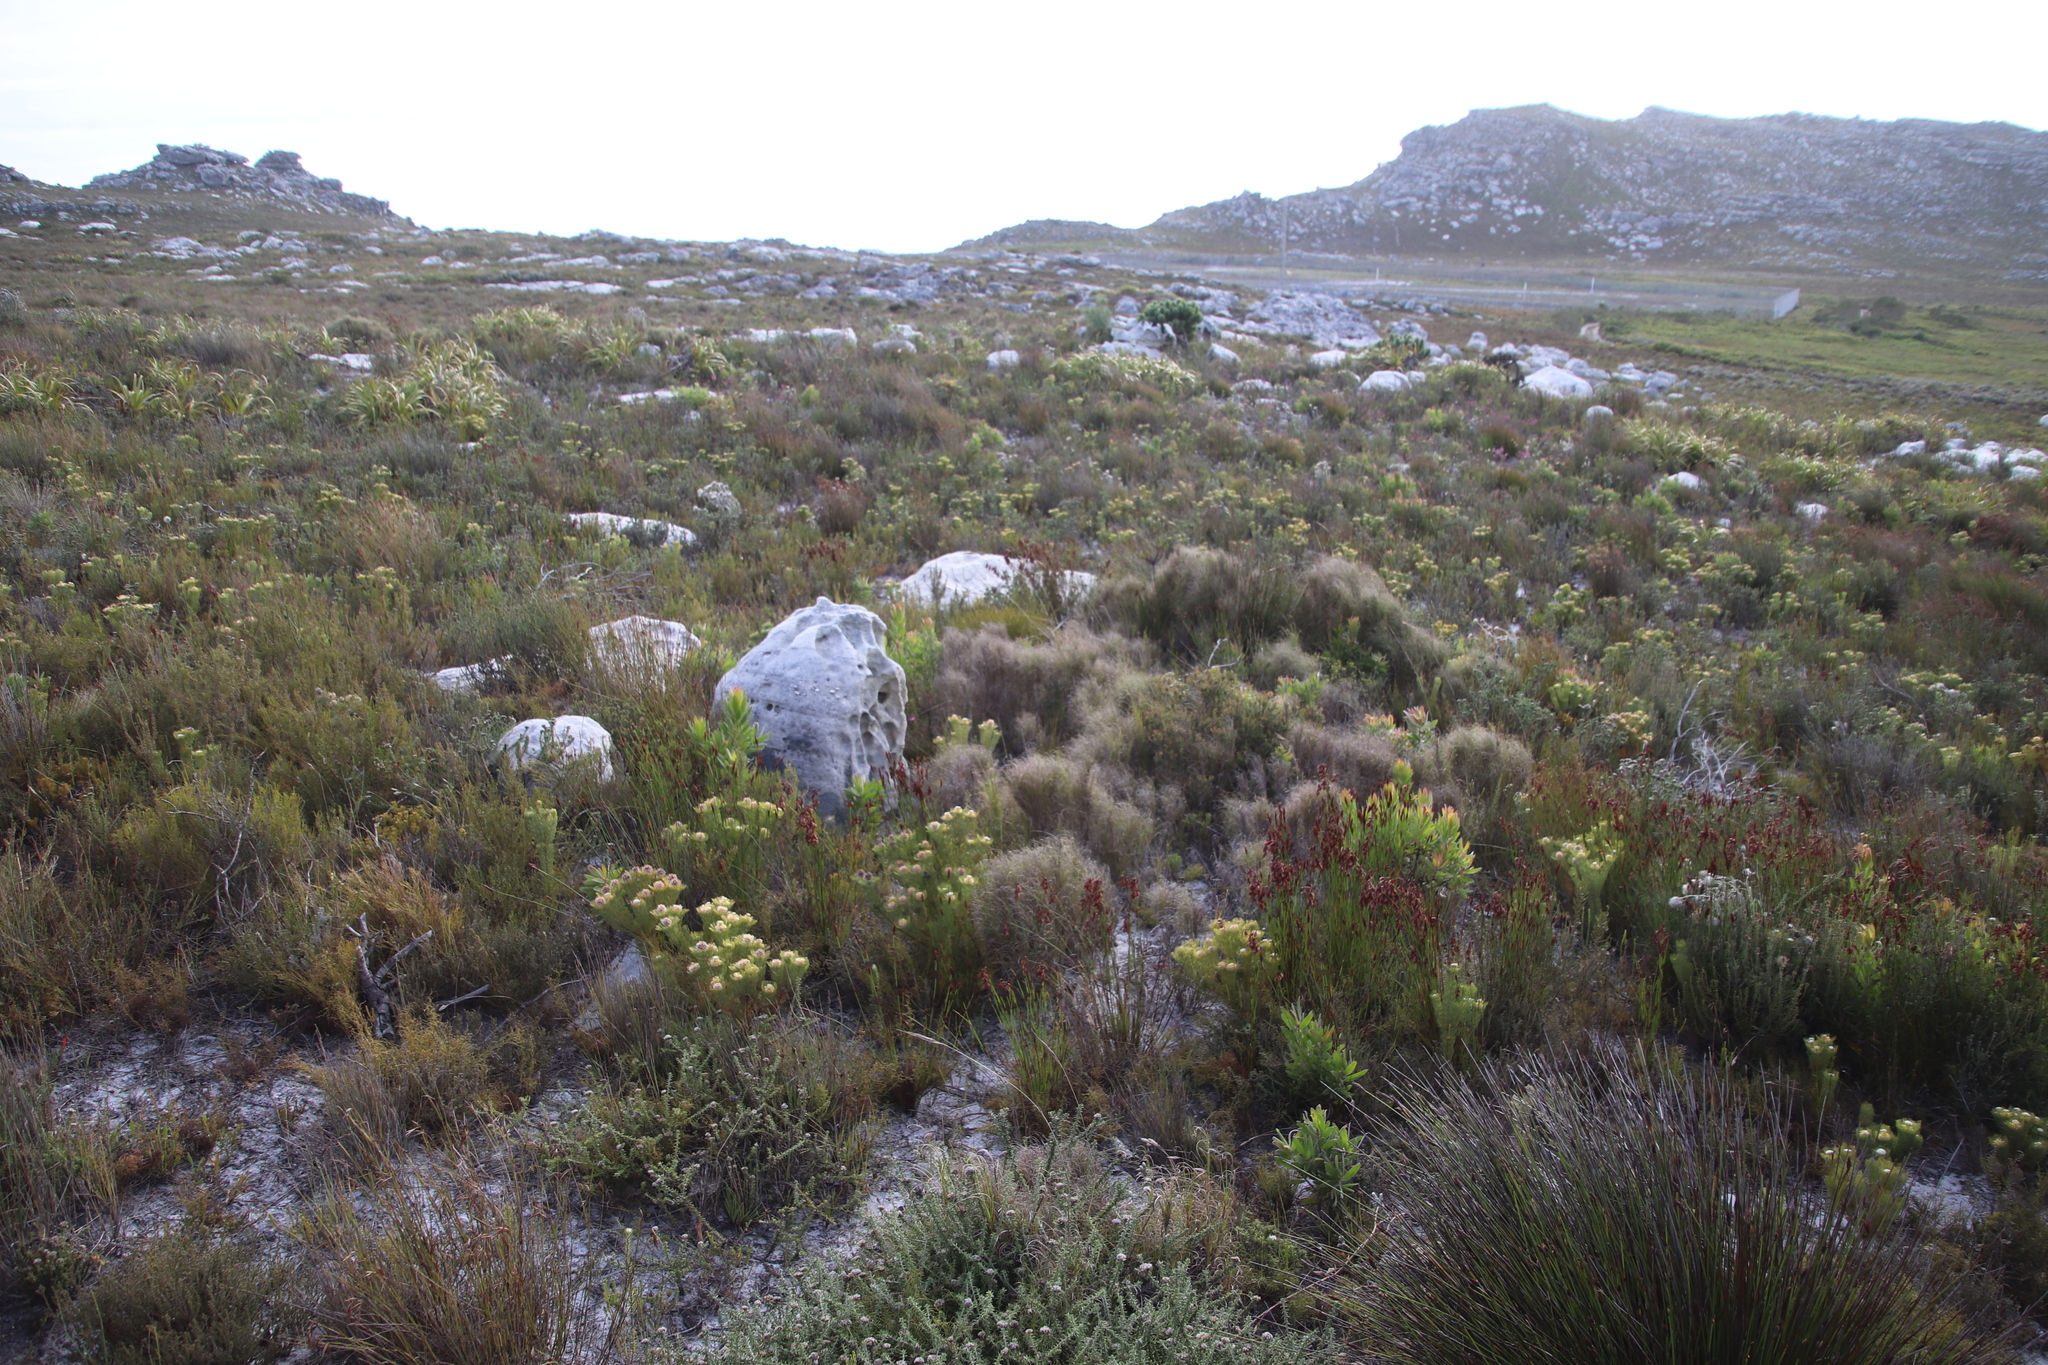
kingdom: Plantae
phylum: Tracheophyta
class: Magnoliopsida
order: Proteales
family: Proteaceae
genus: Serruria
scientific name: Serruria villosa
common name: Golden spiderhead
